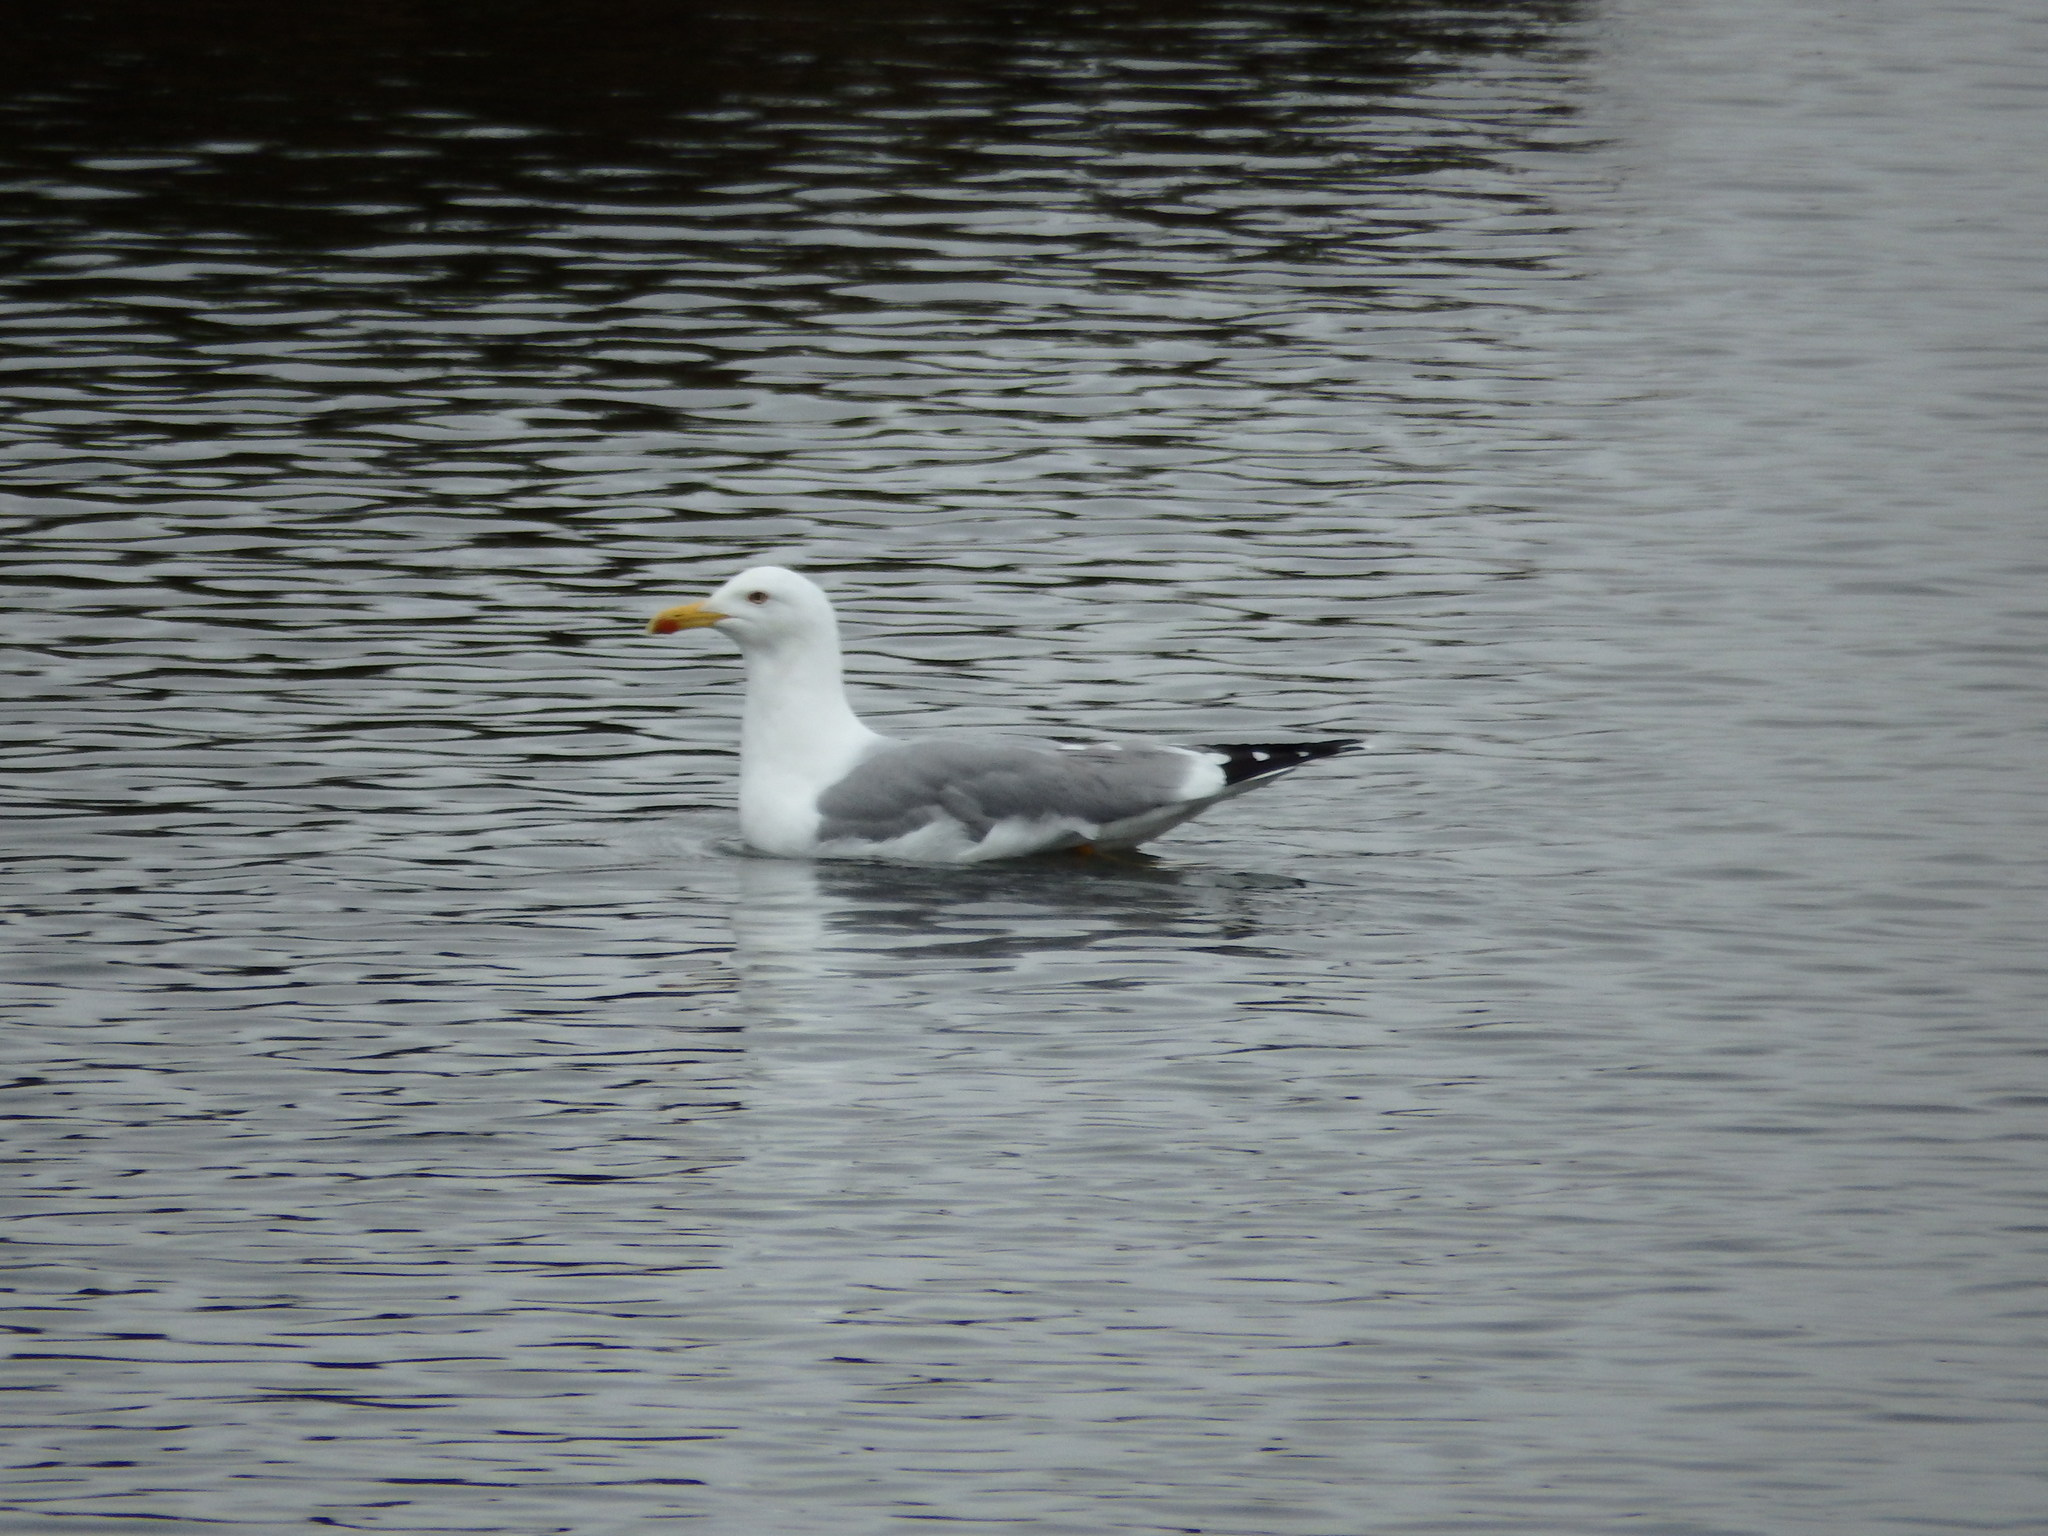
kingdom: Animalia
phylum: Chordata
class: Aves
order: Charadriiformes
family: Laridae
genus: Larus
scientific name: Larus michahellis
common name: Yellow-legged gull
